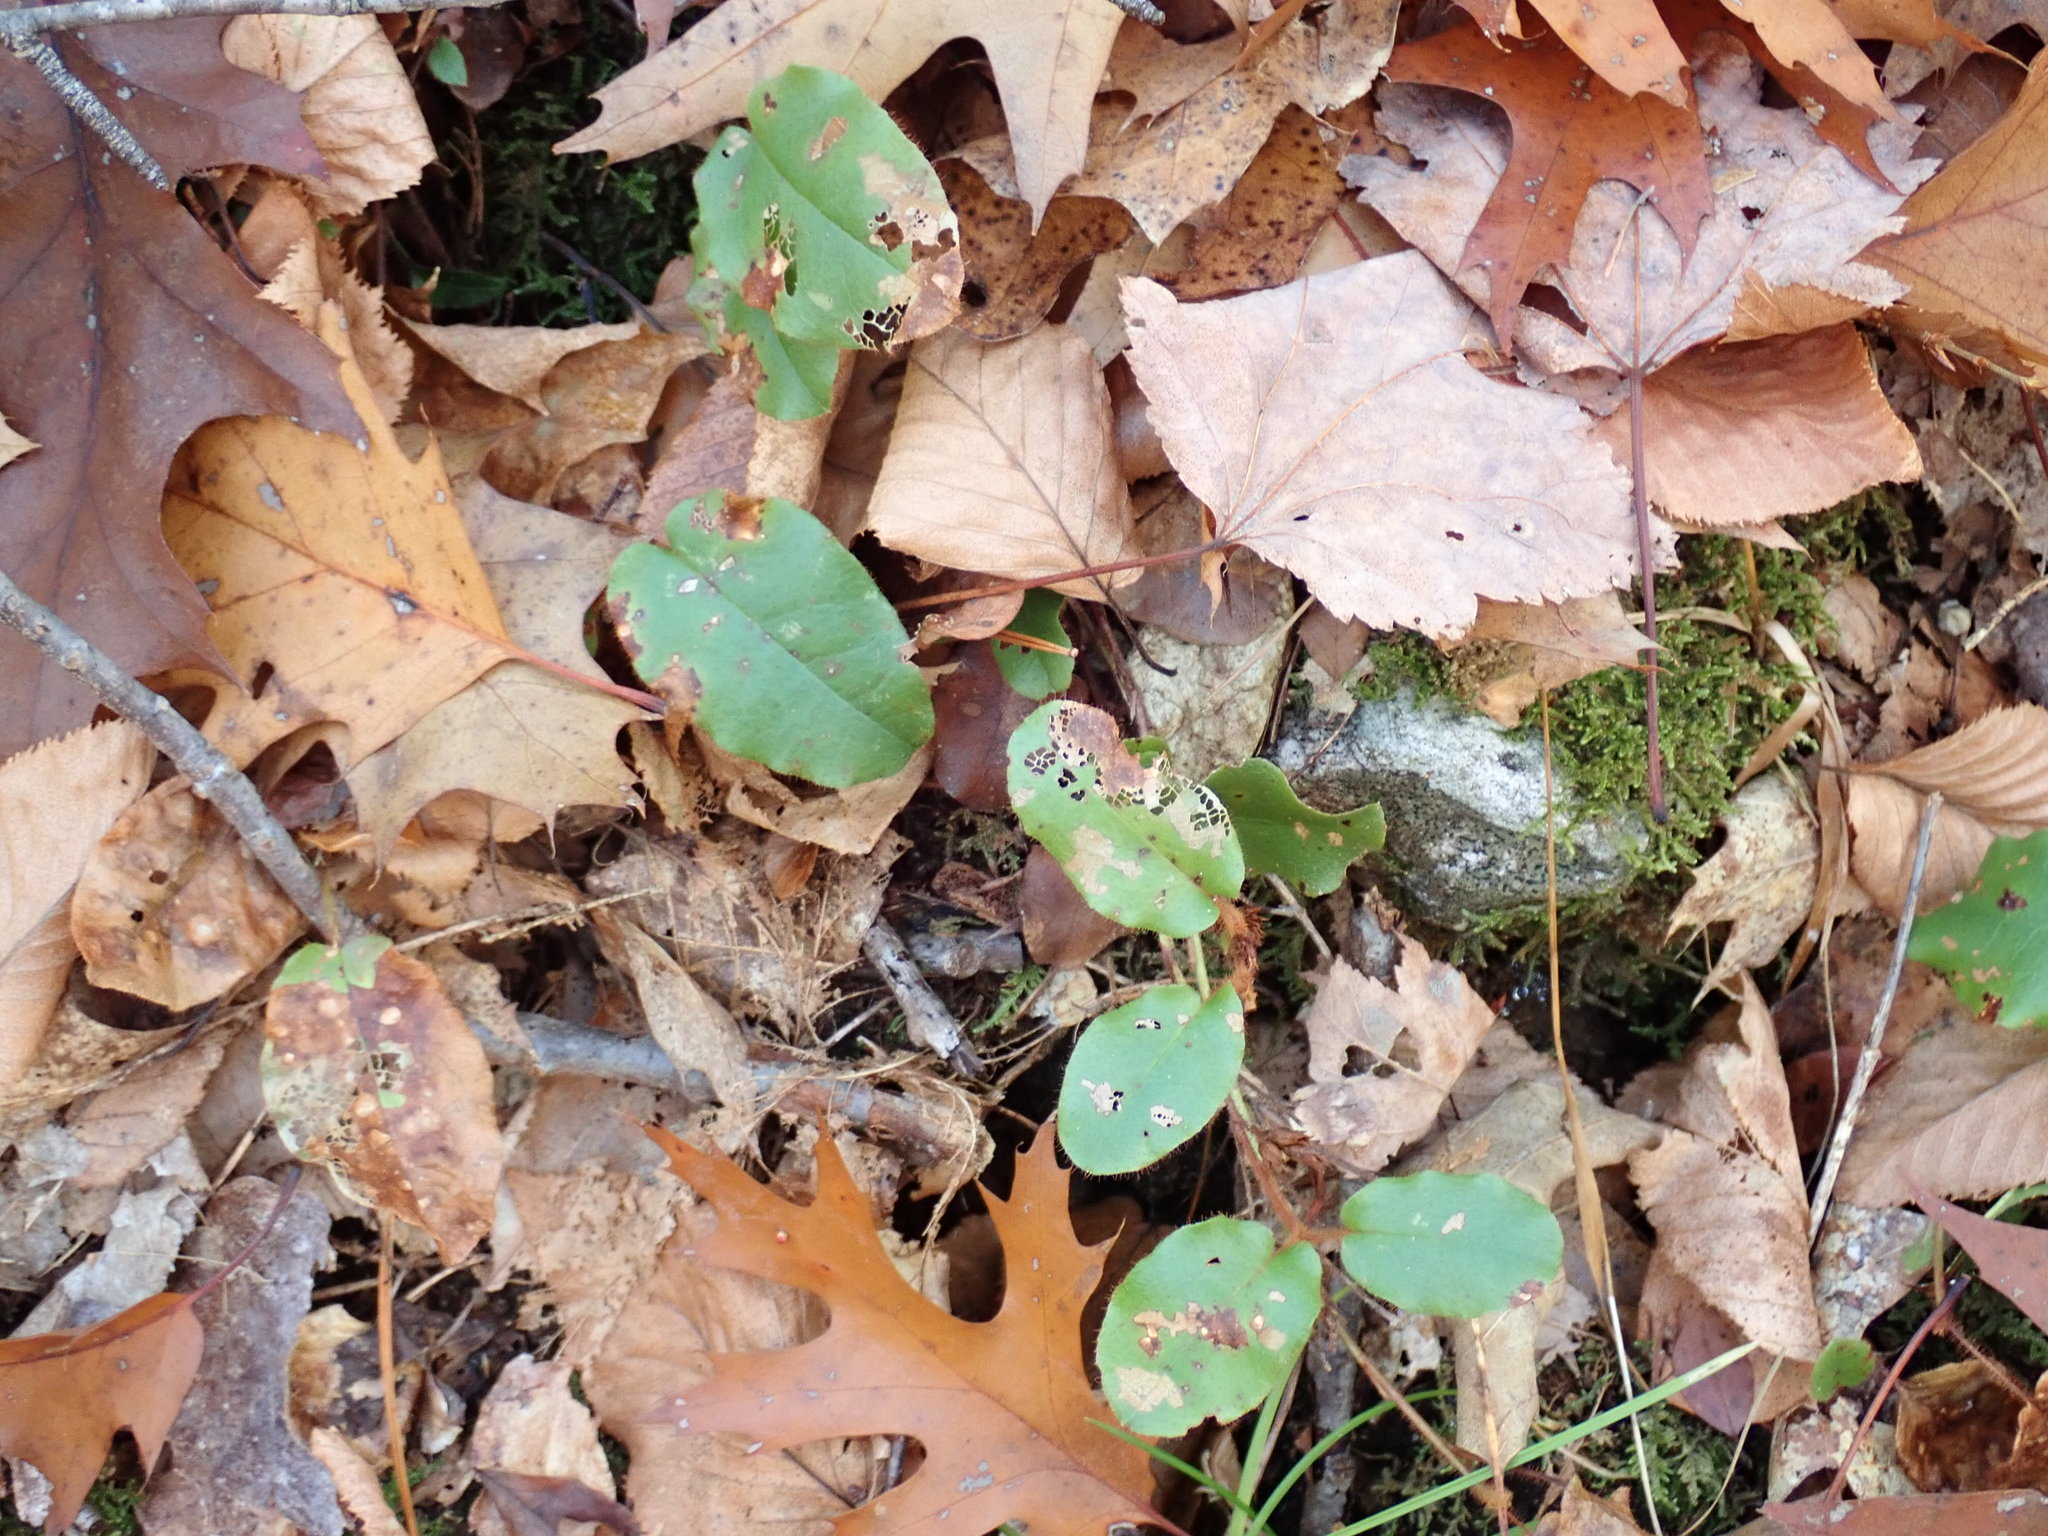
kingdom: Plantae
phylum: Tracheophyta
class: Magnoliopsida
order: Ericales
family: Ericaceae
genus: Epigaea
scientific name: Epigaea repens
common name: Gravelroot
